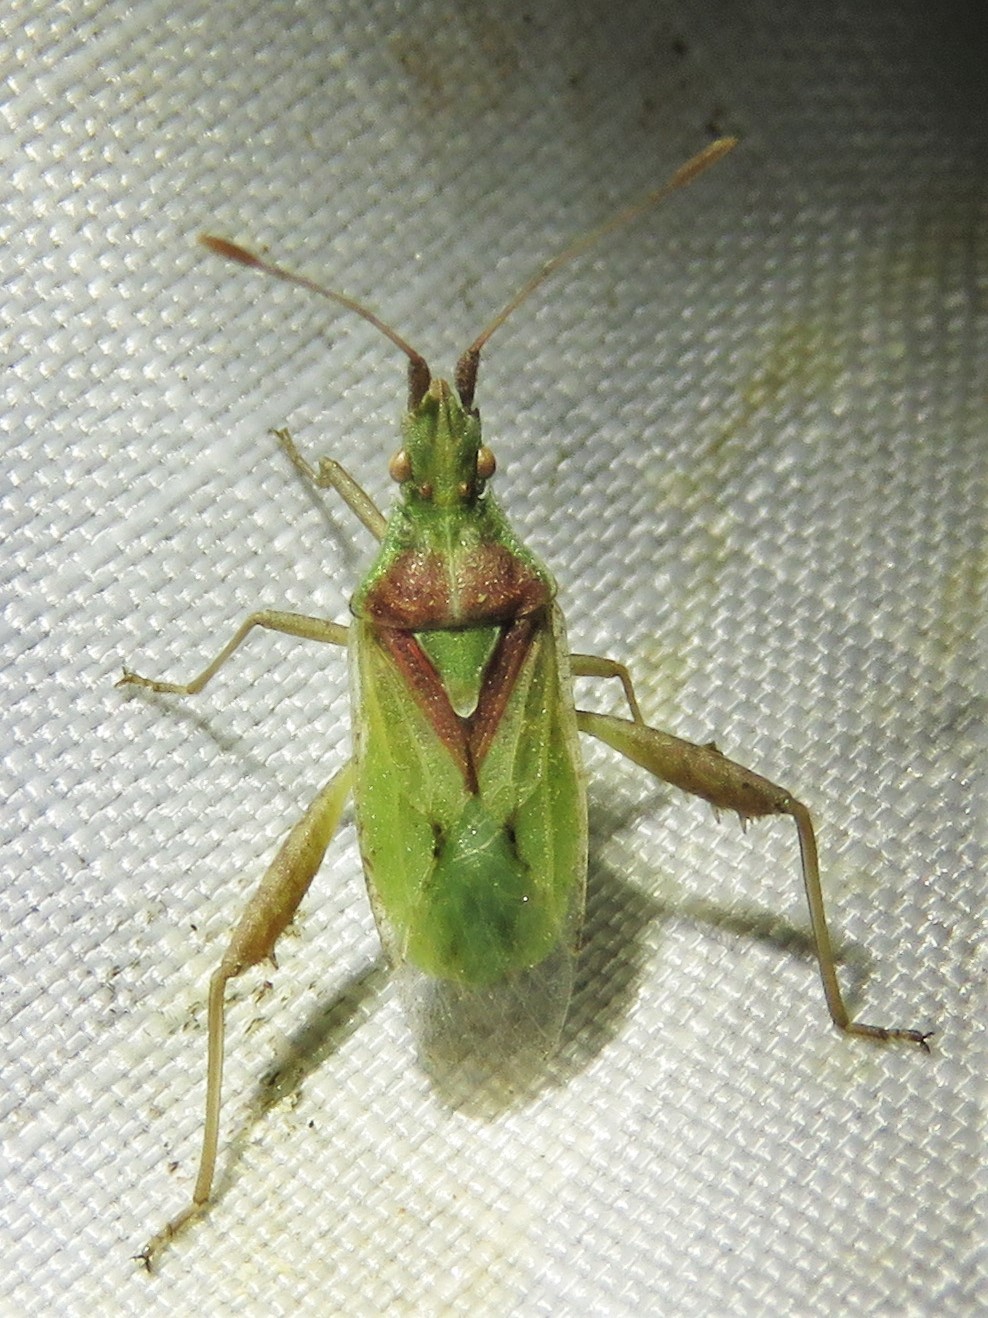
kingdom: Animalia
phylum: Arthropoda
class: Insecta
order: Hemiptera
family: Rhopalidae
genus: Harmostes
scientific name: Harmostes reflexulus
